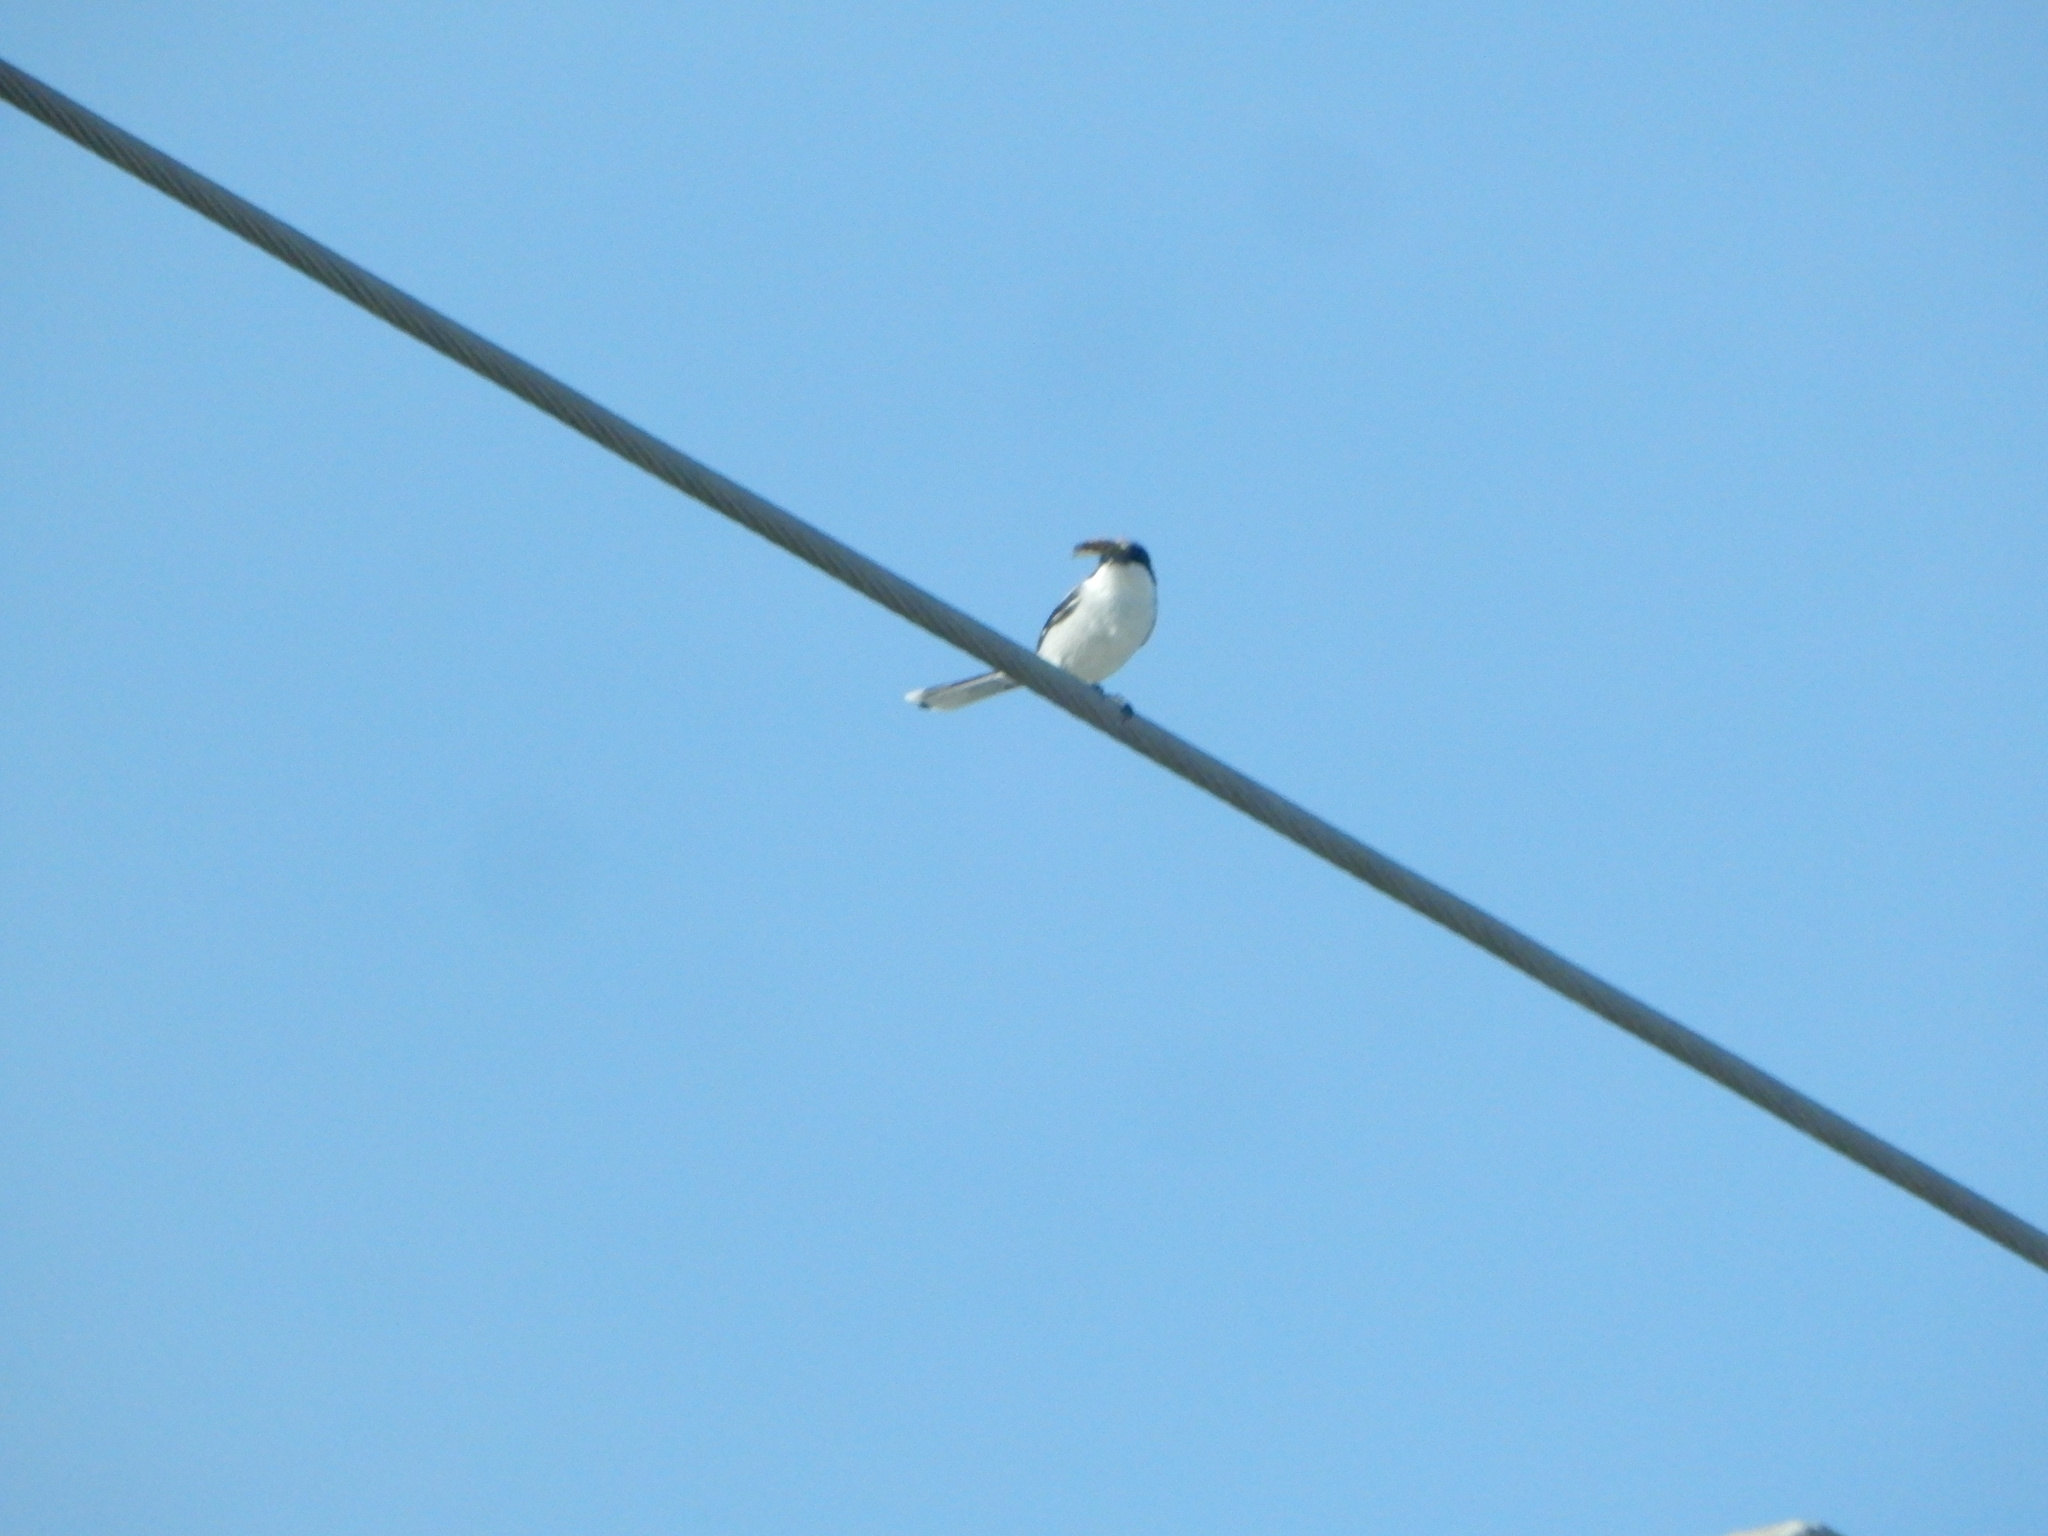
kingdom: Animalia
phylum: Chordata
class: Aves
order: Passeriformes
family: Laniidae
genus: Lanius
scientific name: Lanius ludovicianus
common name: Loggerhead shrike
